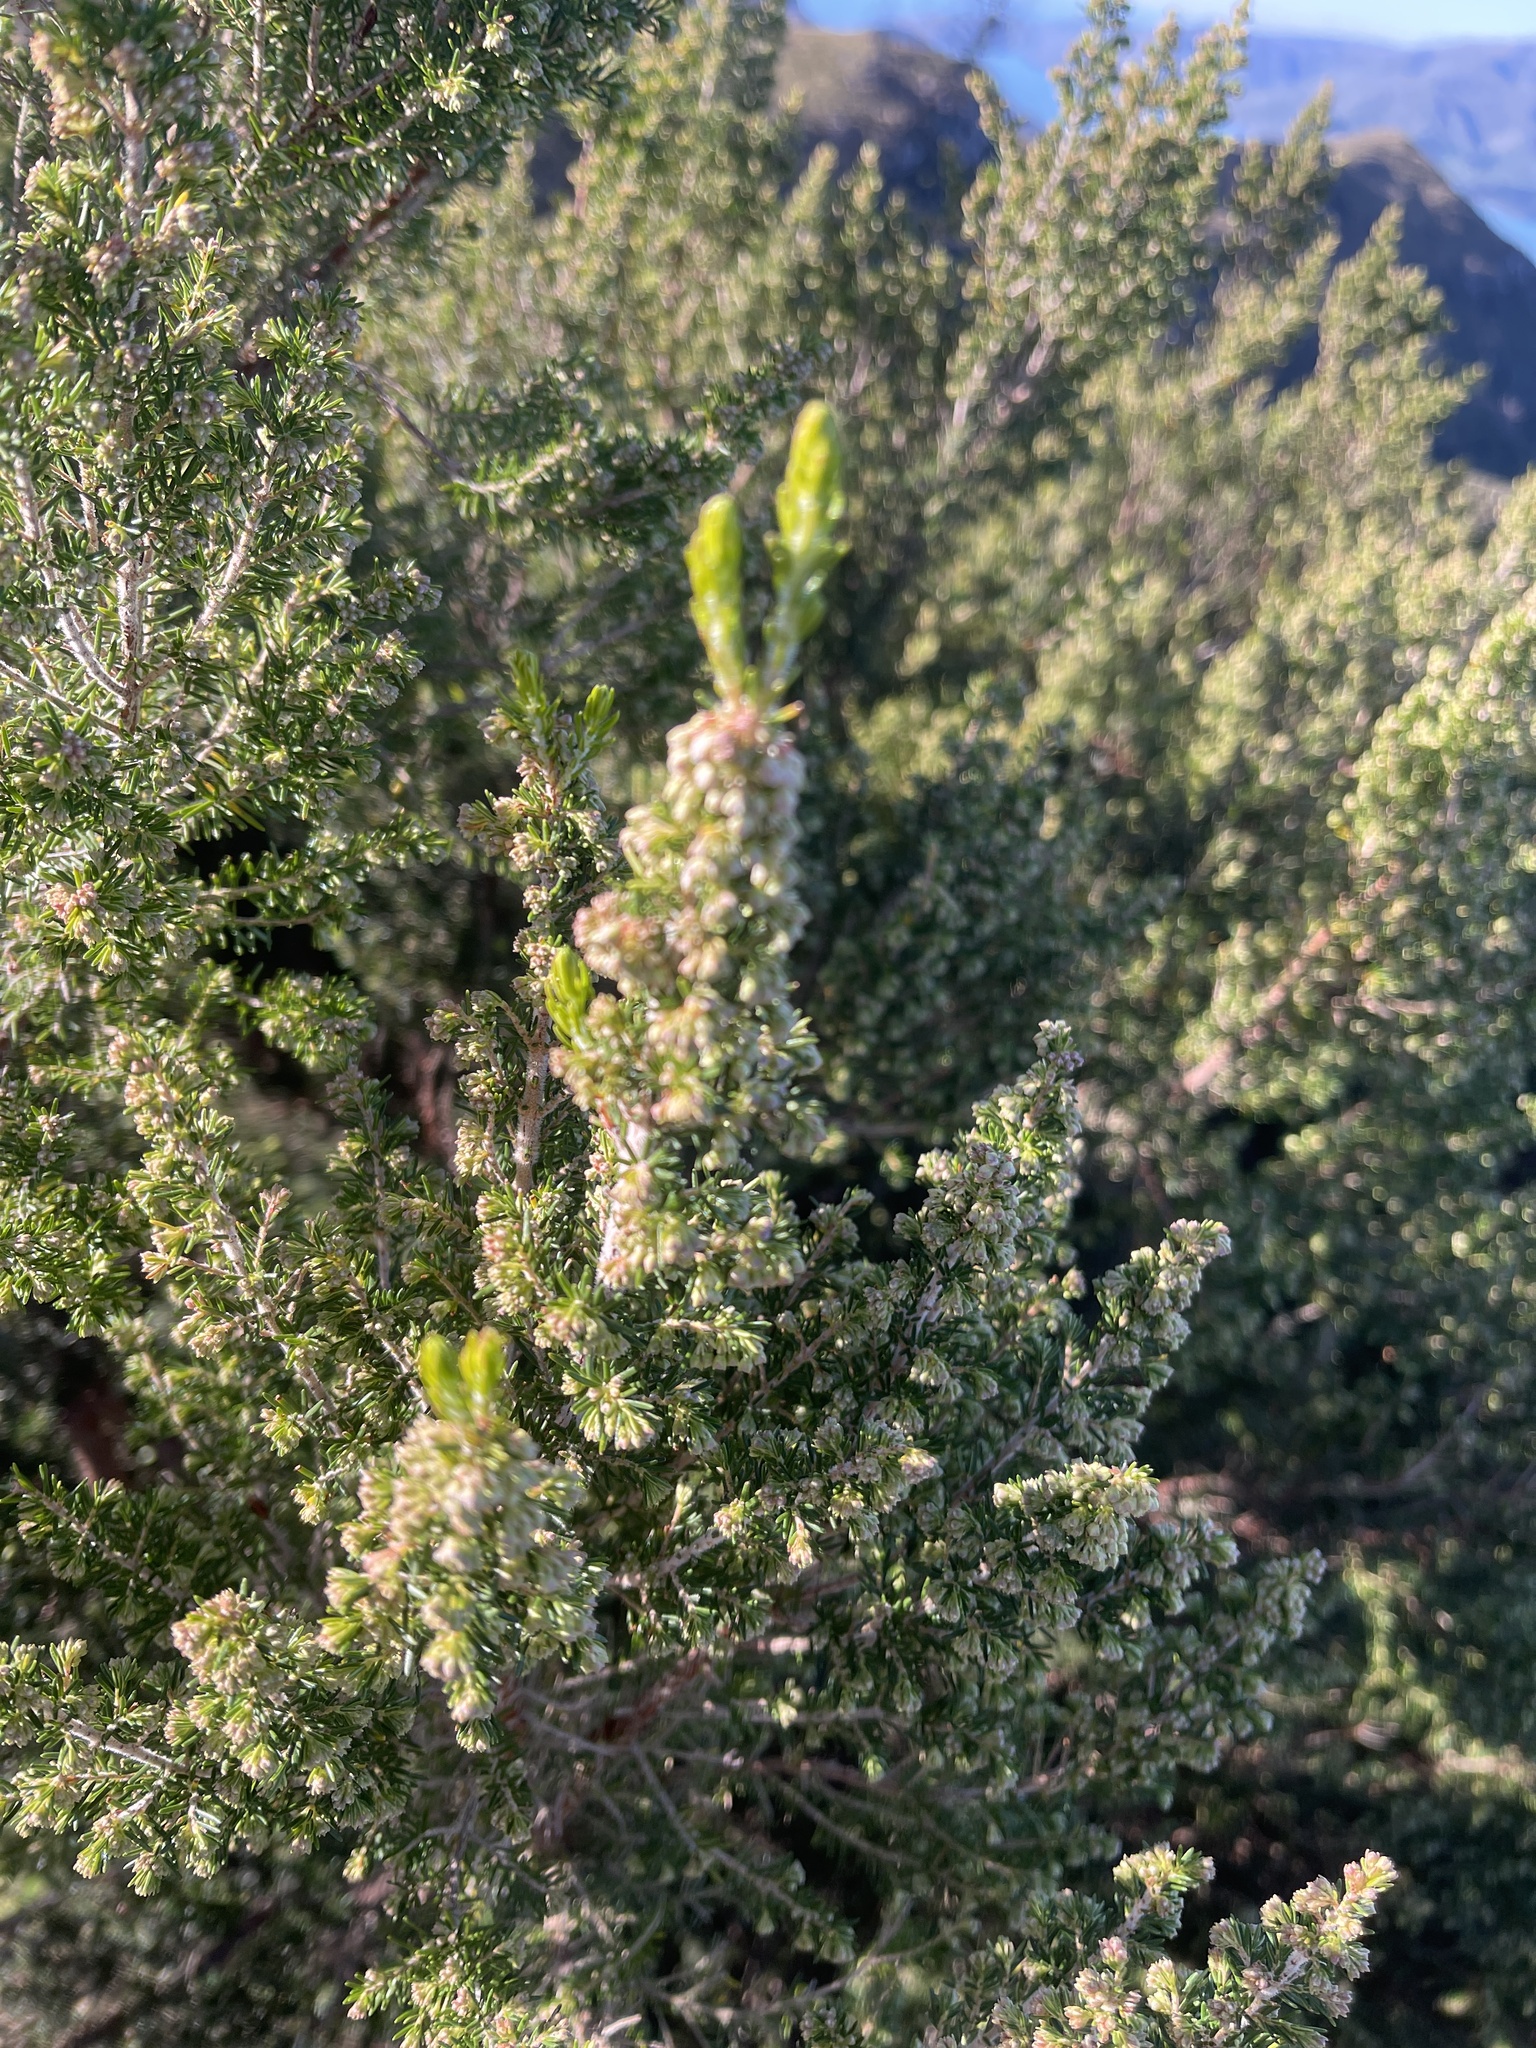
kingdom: Plantae
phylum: Tracheophyta
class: Magnoliopsida
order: Asterales
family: Asteraceae
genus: Ozothamnus
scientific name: Ozothamnus leptophyllus
